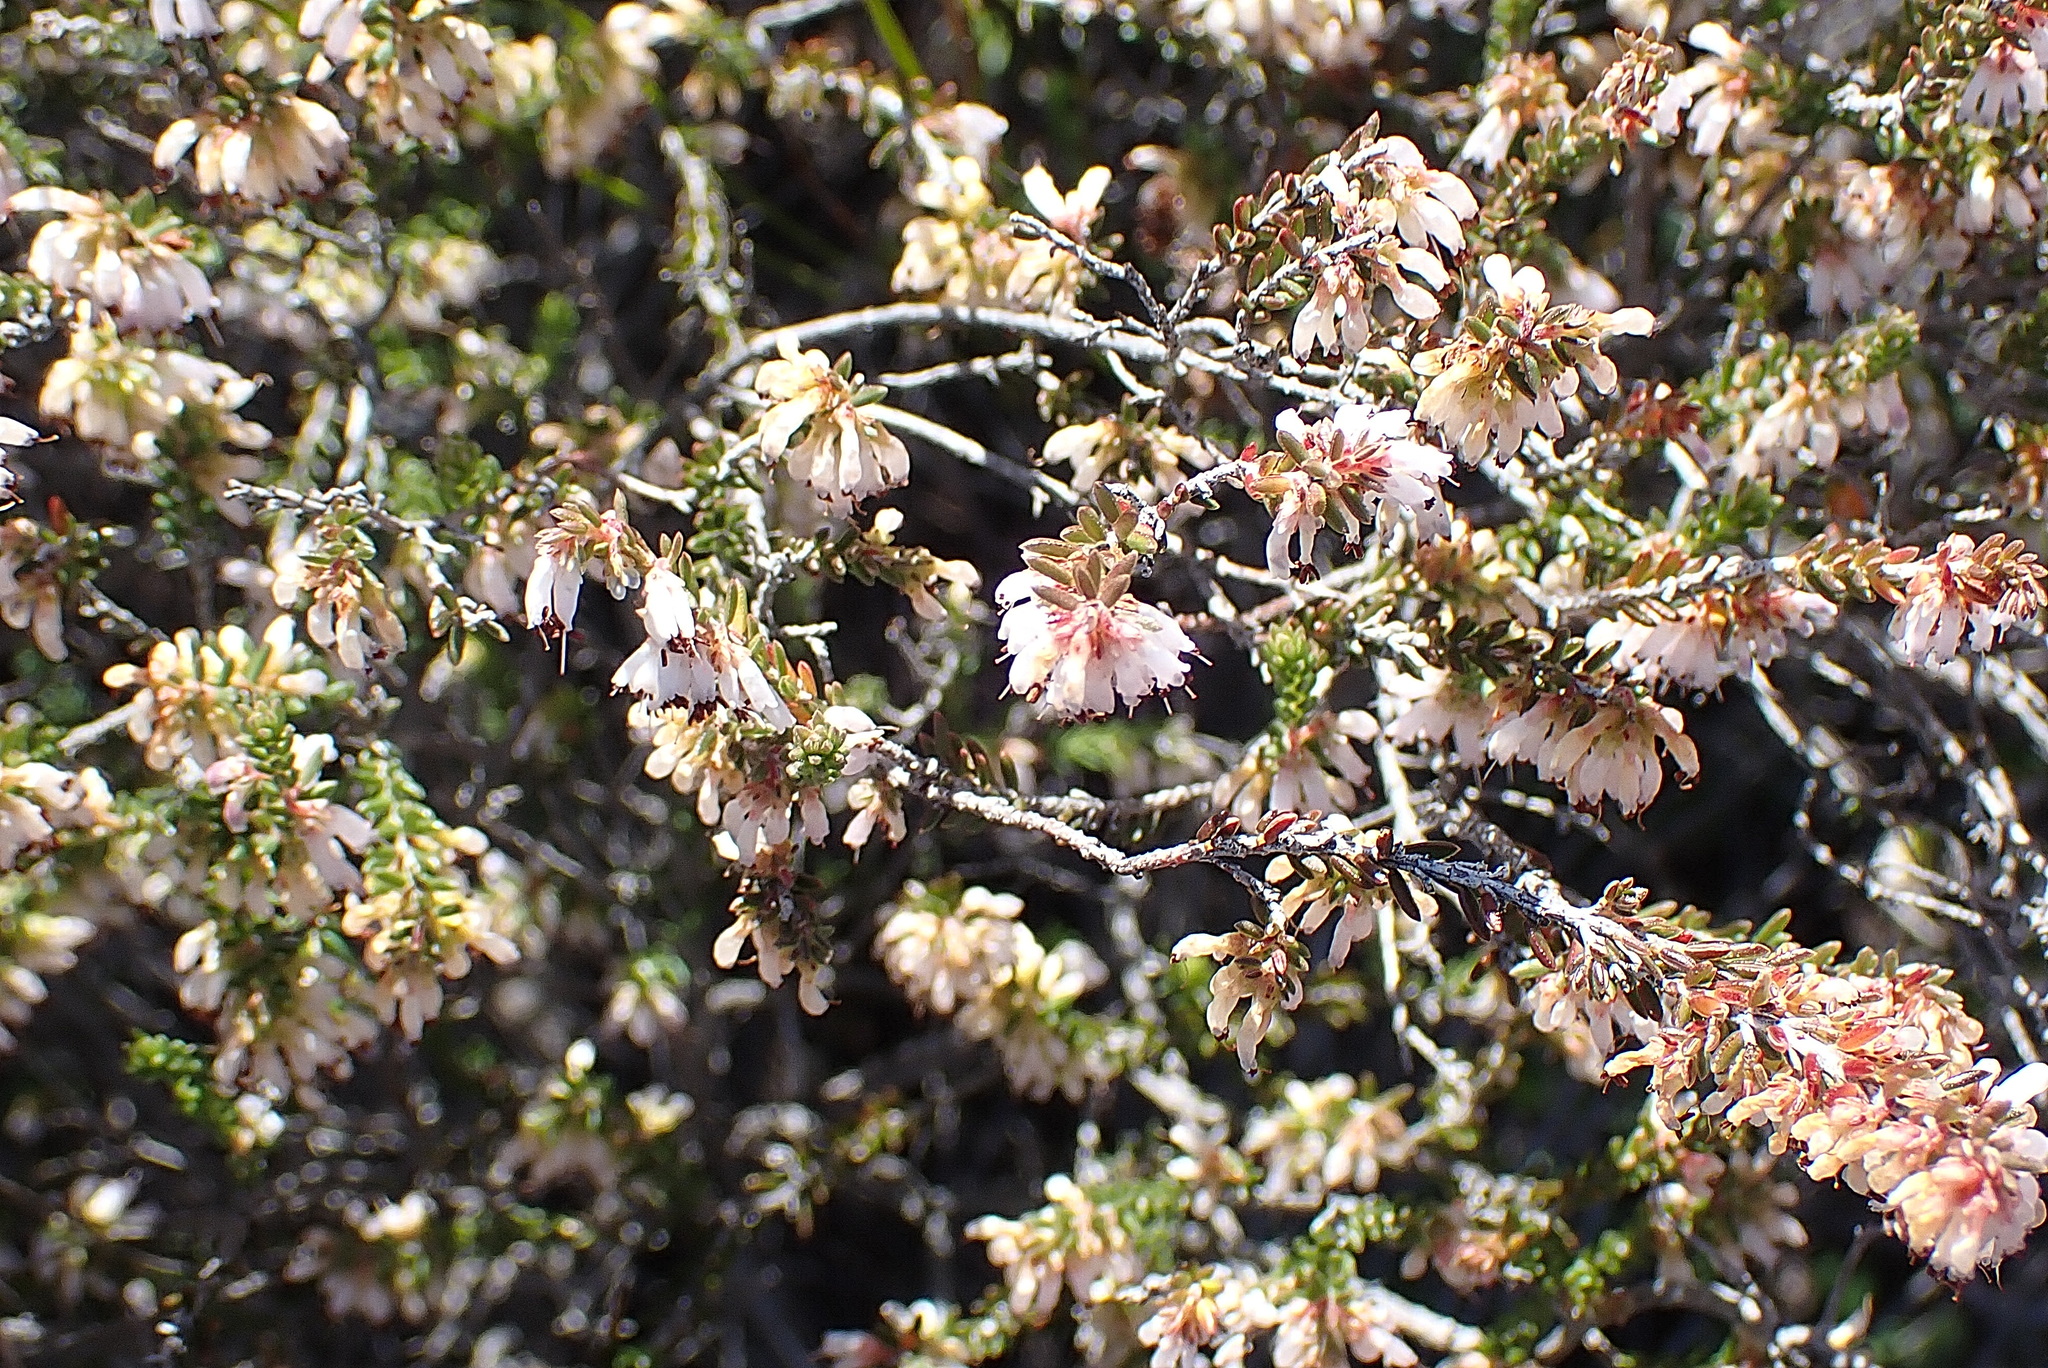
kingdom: Plantae
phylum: Tracheophyta
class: Magnoliopsida
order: Ericales
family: Ericaceae
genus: Erica
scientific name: Erica glabra
